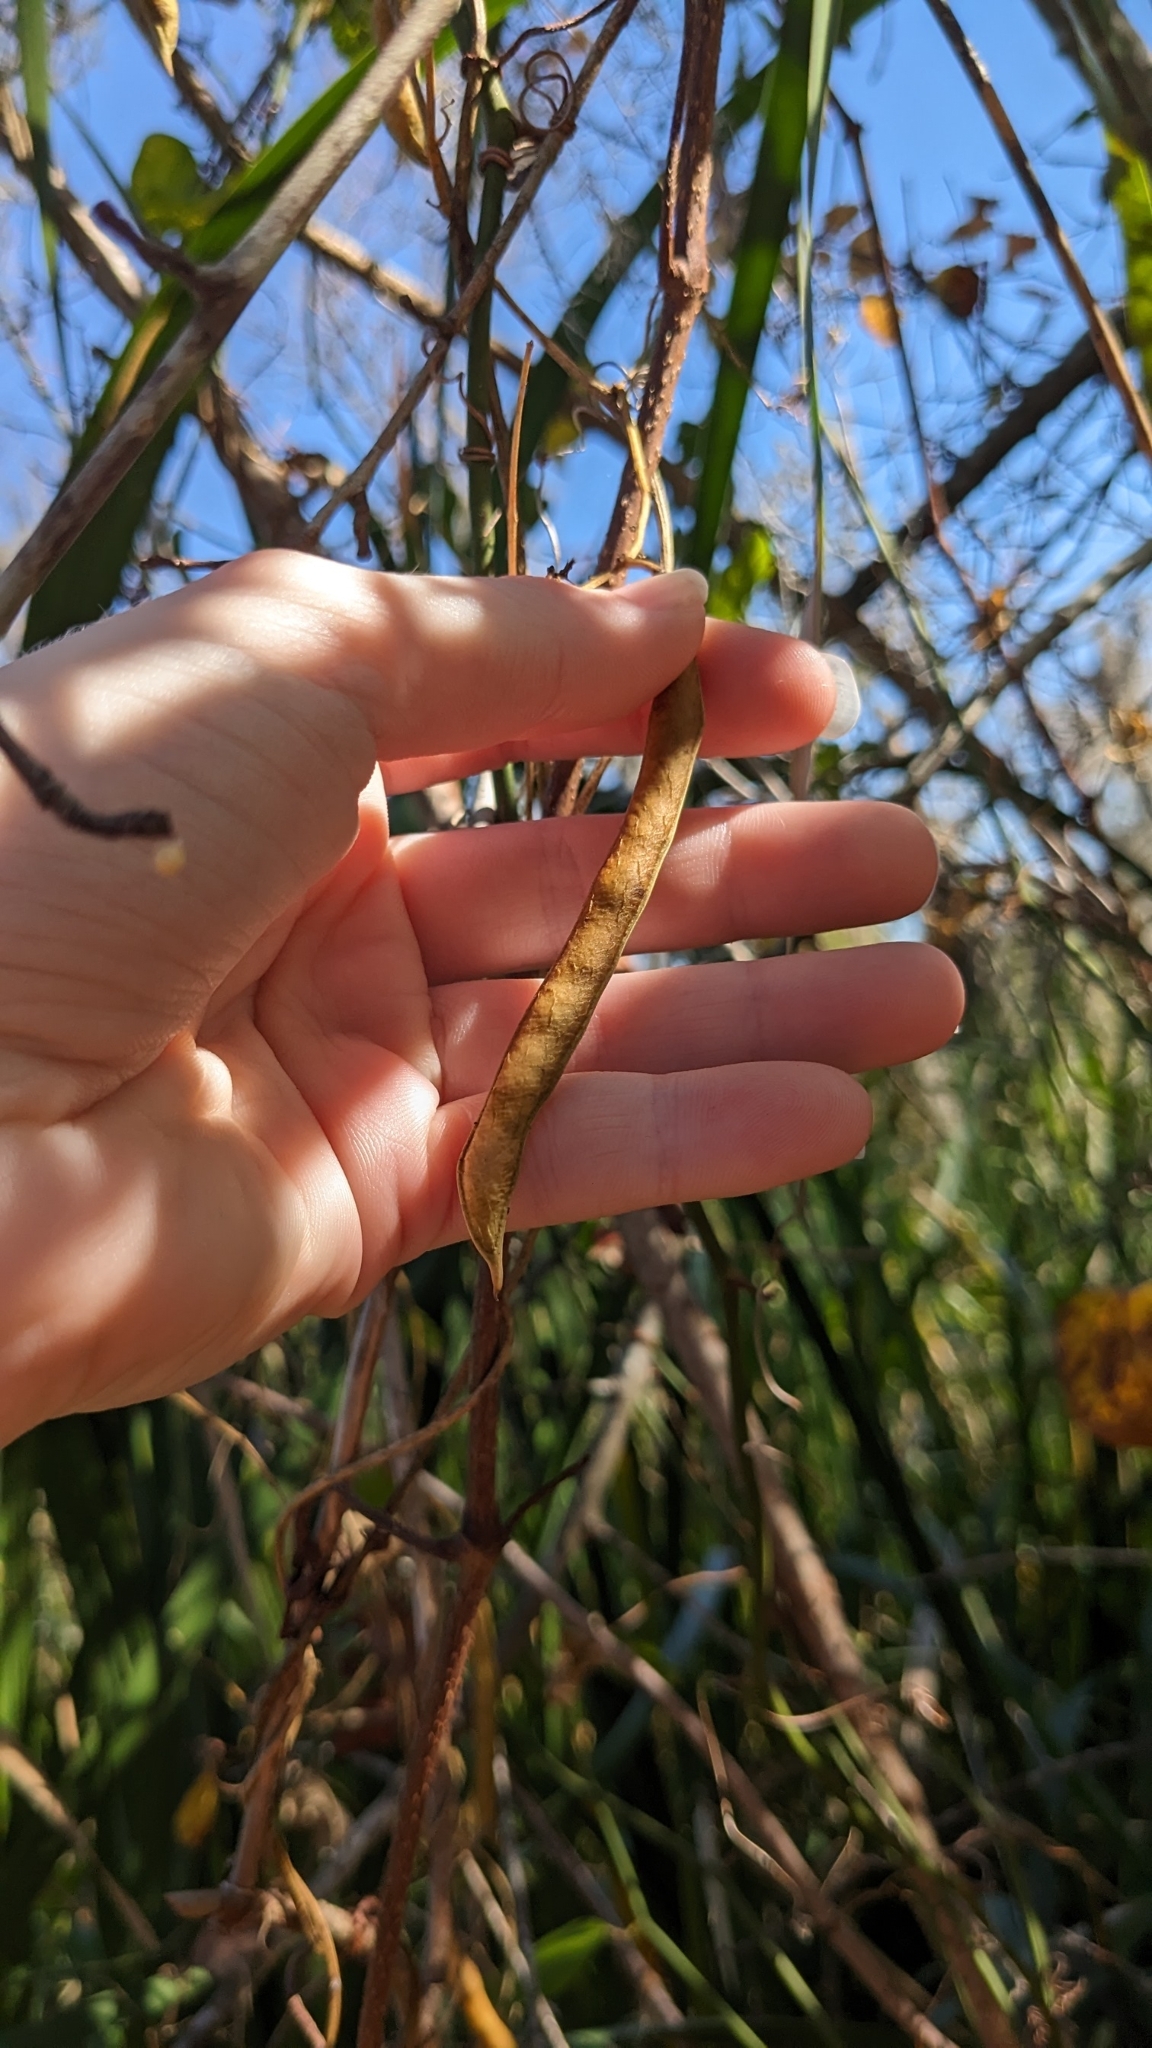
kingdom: Plantae
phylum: Tracheophyta
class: Magnoliopsida
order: Fabales
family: Fabaceae
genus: Apios
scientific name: Apios americana
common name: American potato-bean
